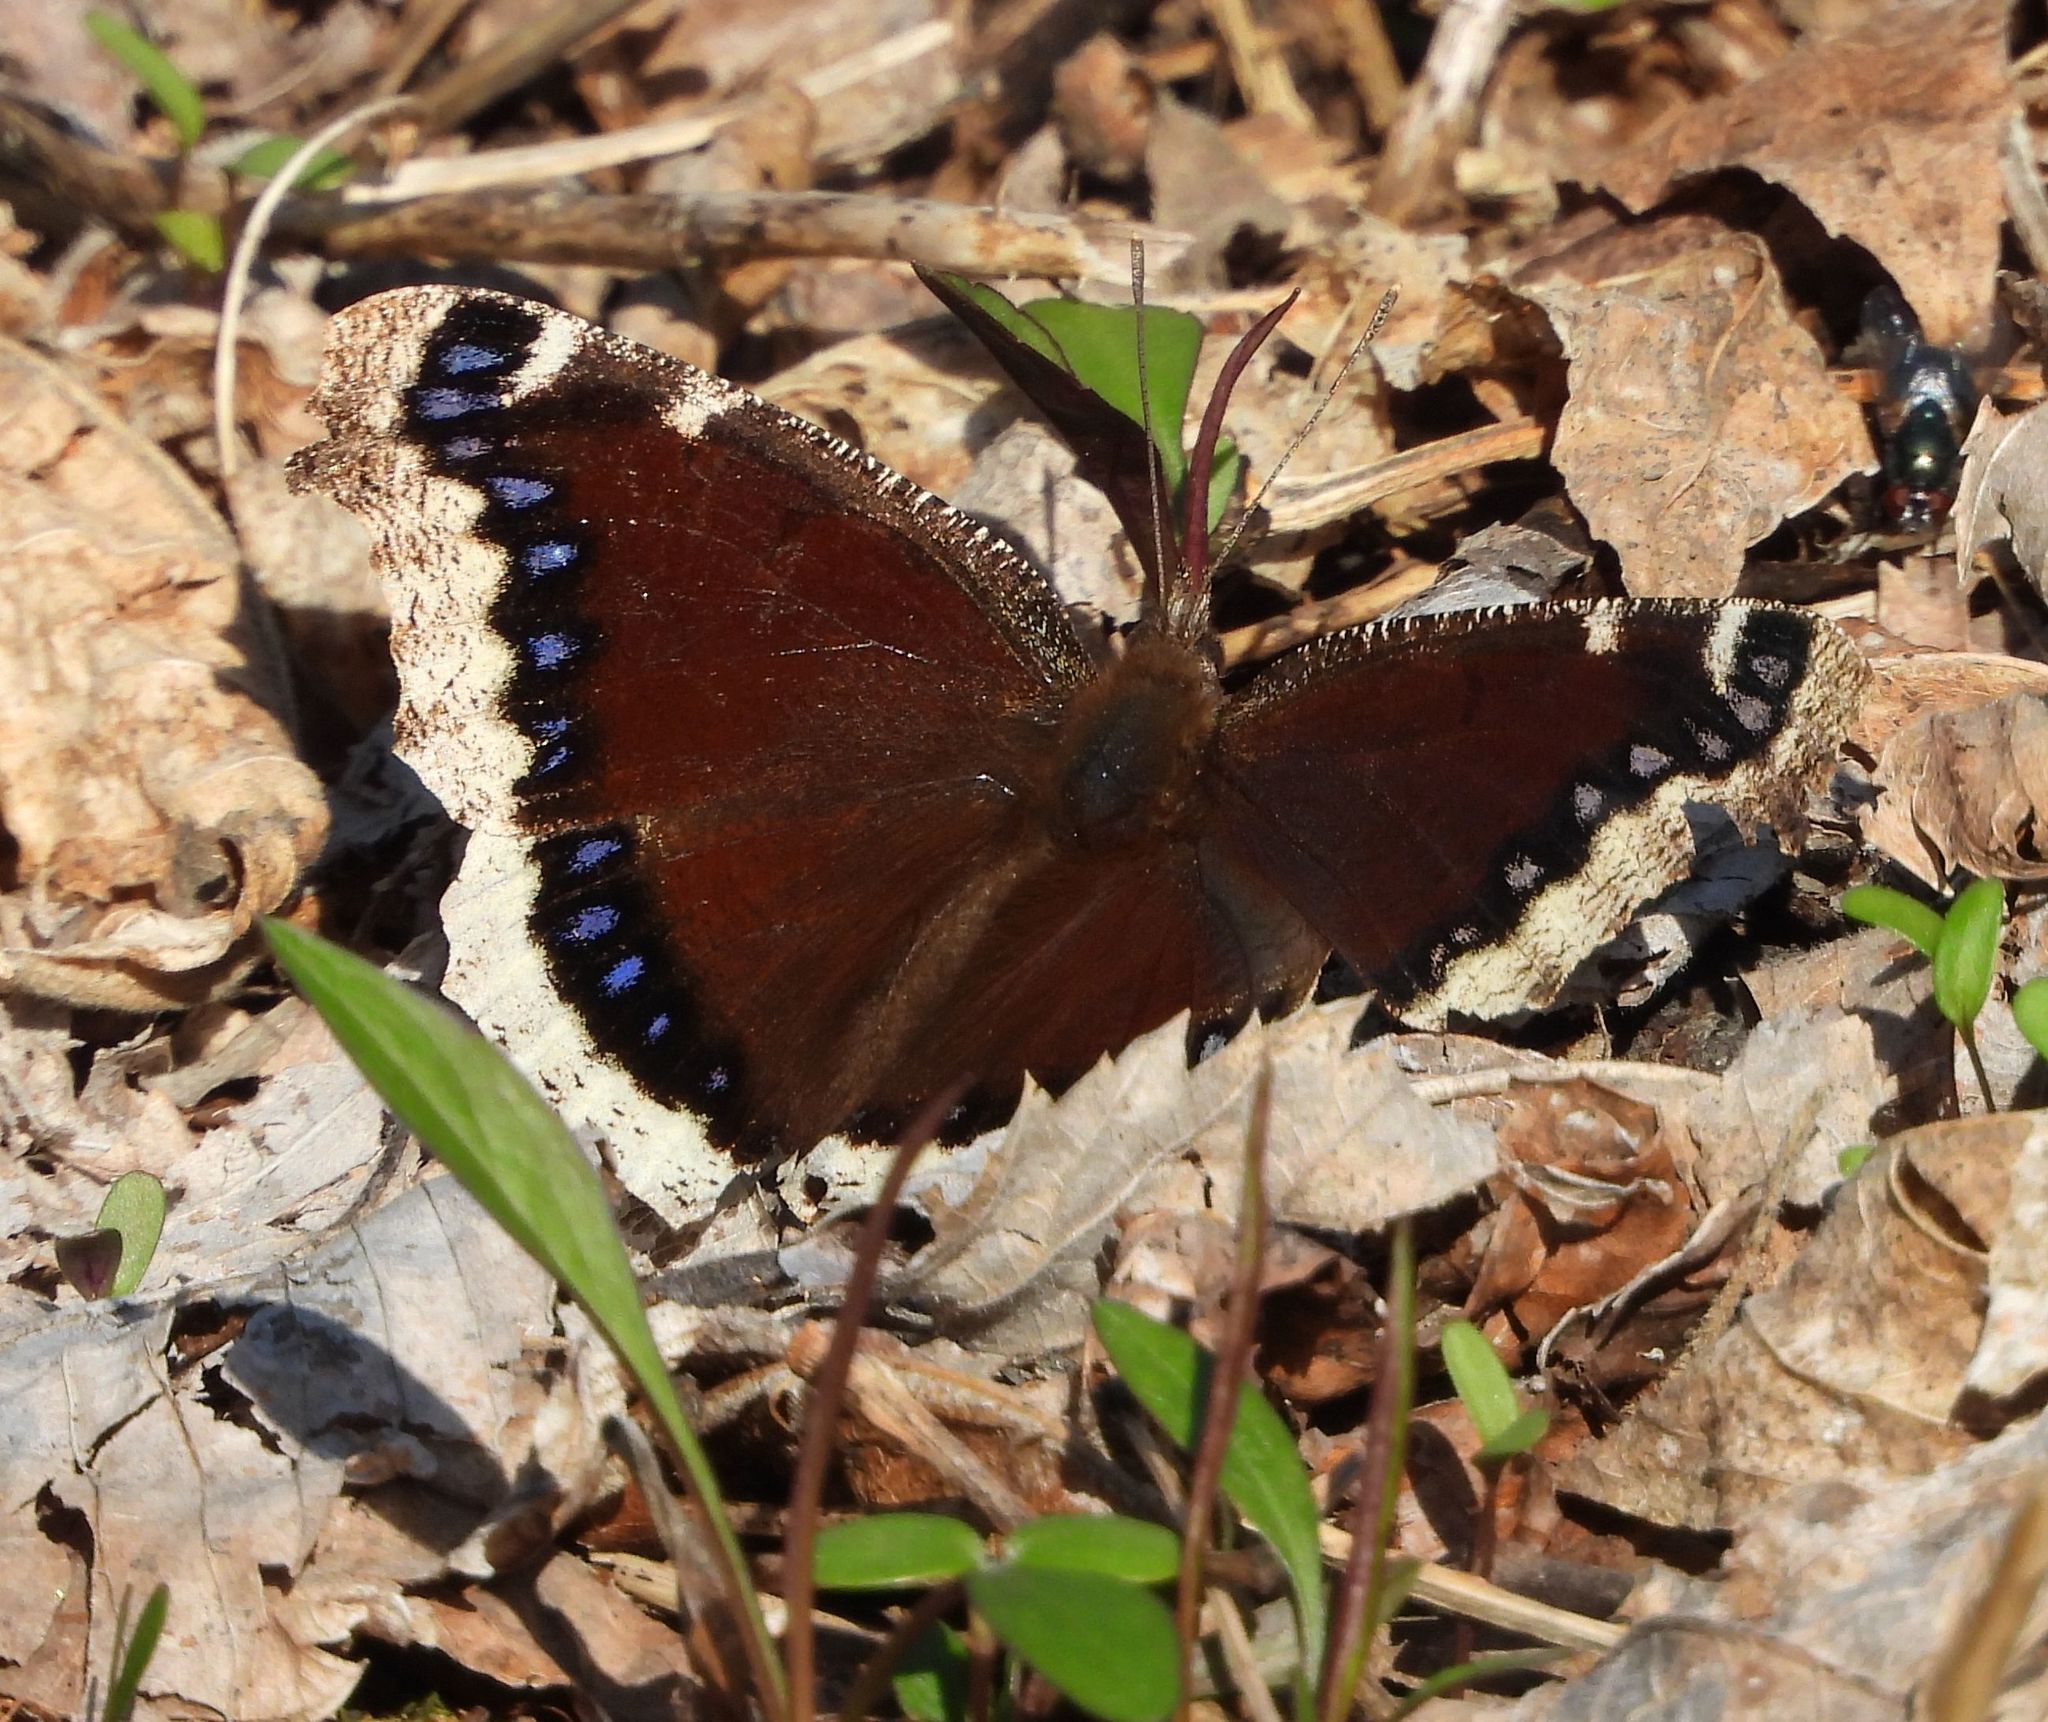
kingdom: Animalia
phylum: Arthropoda
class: Insecta
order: Lepidoptera
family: Nymphalidae
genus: Nymphalis
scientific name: Nymphalis antiopa
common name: Camberwell beauty
